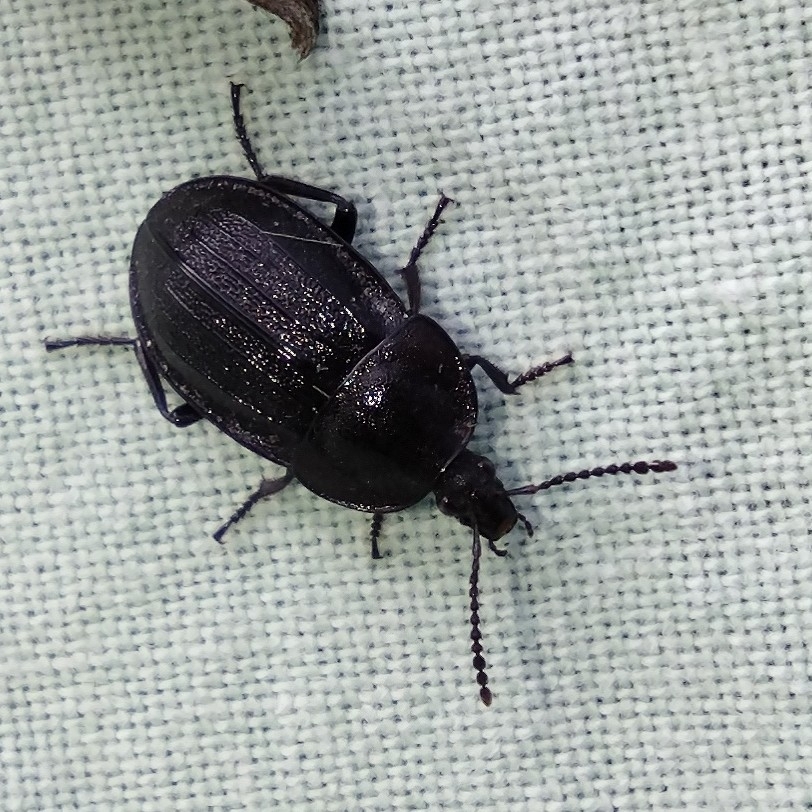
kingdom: Animalia
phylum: Arthropoda
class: Insecta
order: Coleoptera
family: Staphylinidae
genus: Silpha
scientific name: Silpha atrata
